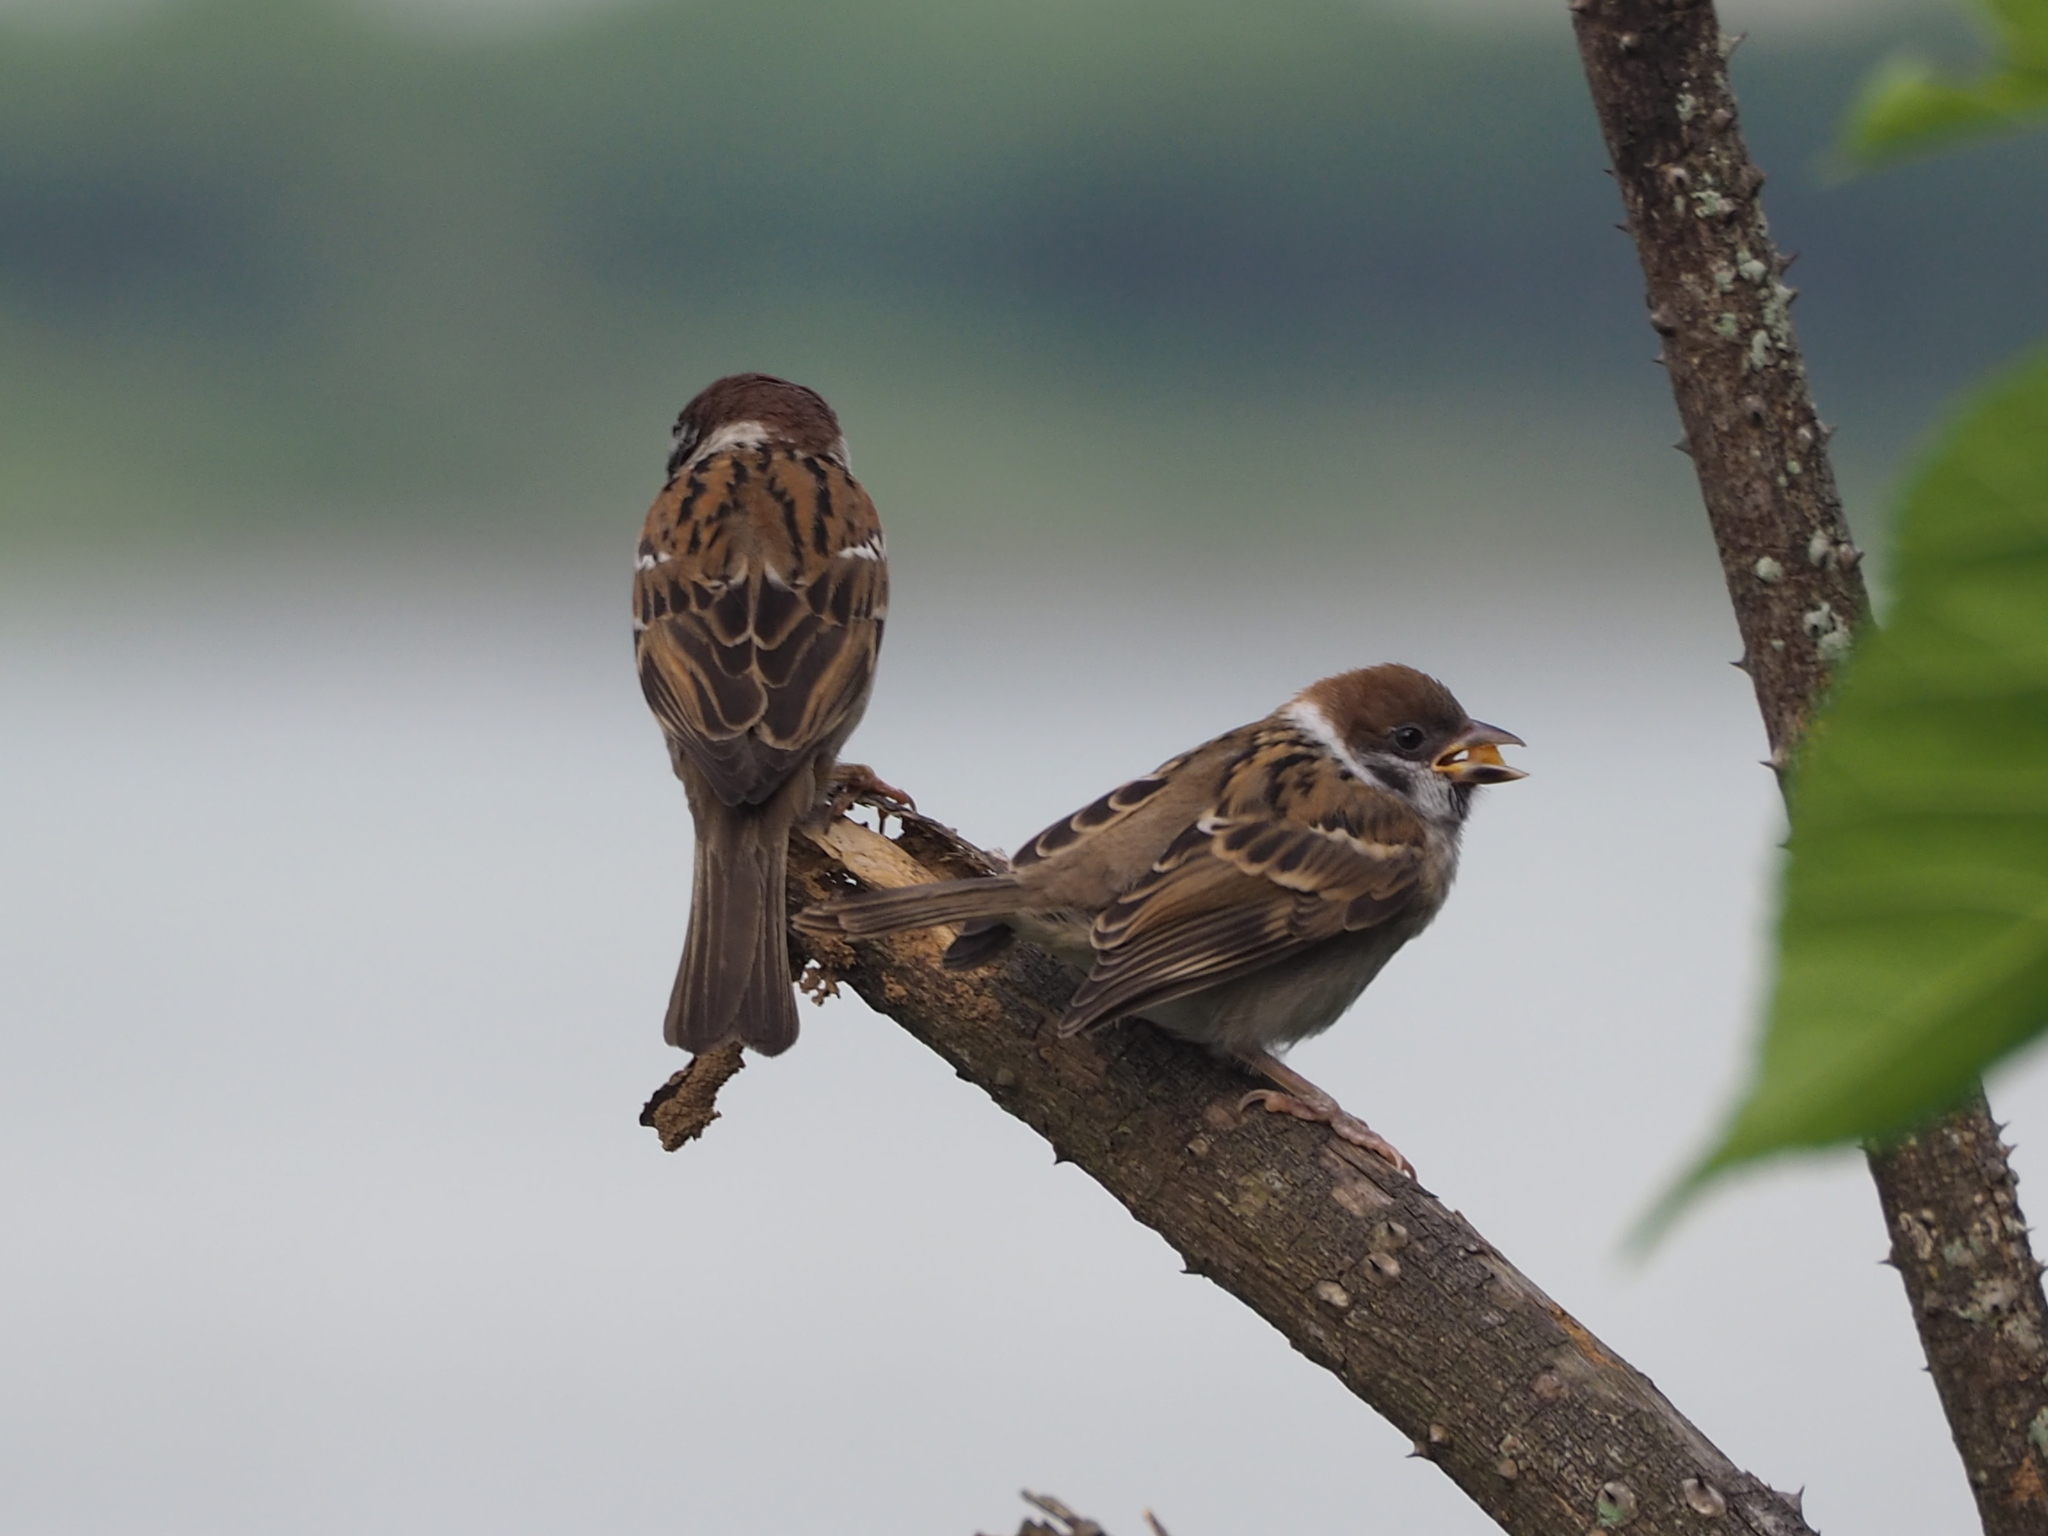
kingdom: Animalia
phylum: Chordata
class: Aves
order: Passeriformes
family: Passeridae
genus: Passer
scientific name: Passer montanus
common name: Eurasian tree sparrow
